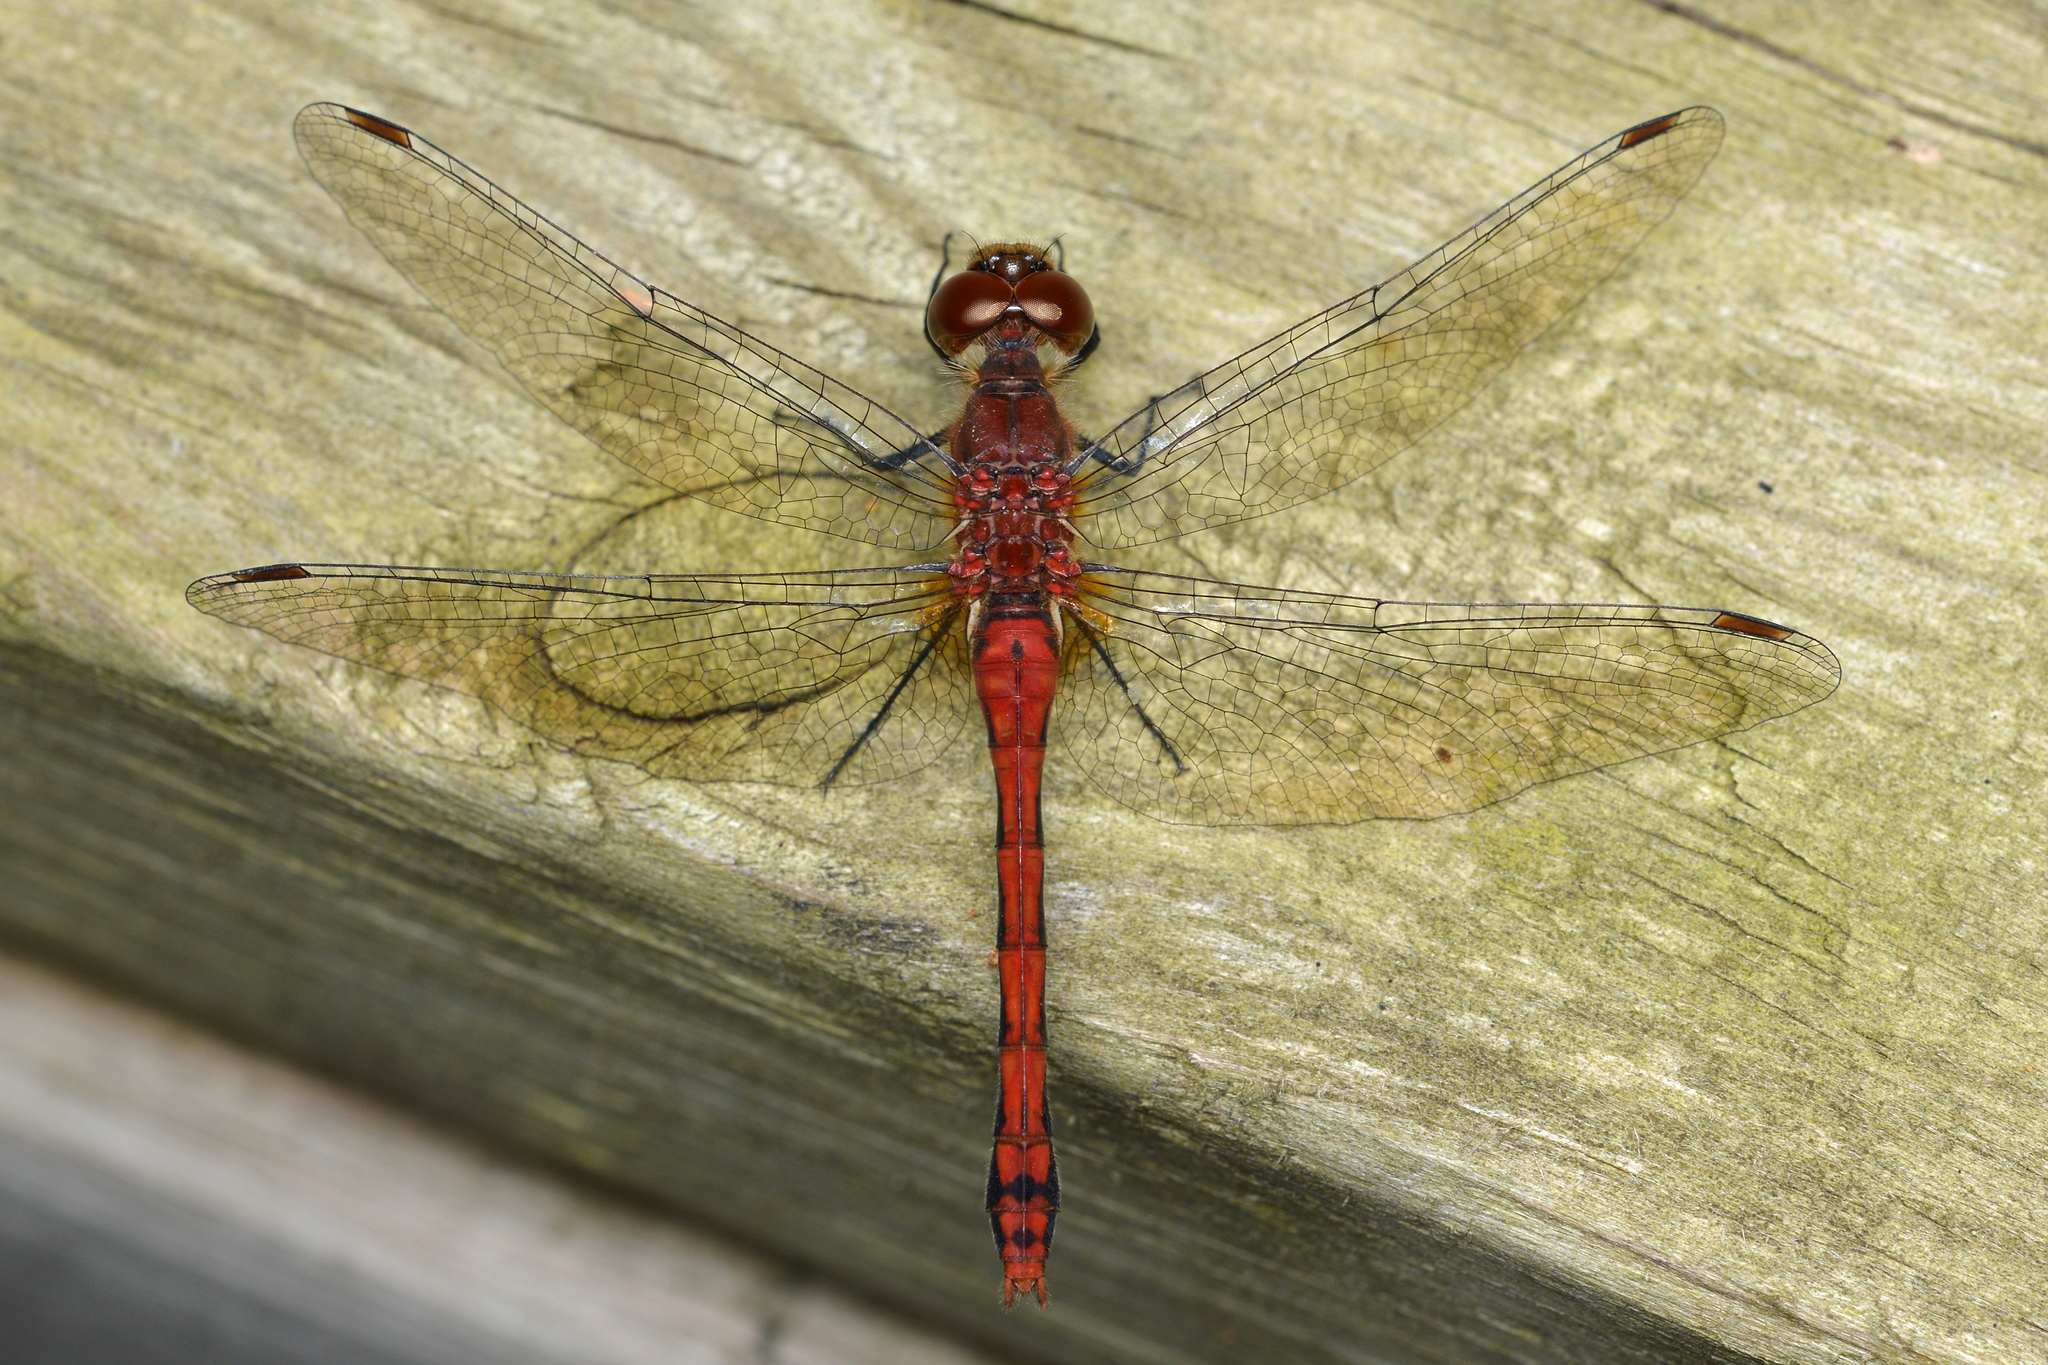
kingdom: Animalia
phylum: Arthropoda
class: Insecta
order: Odonata
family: Libellulidae
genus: Sympetrum
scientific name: Sympetrum
